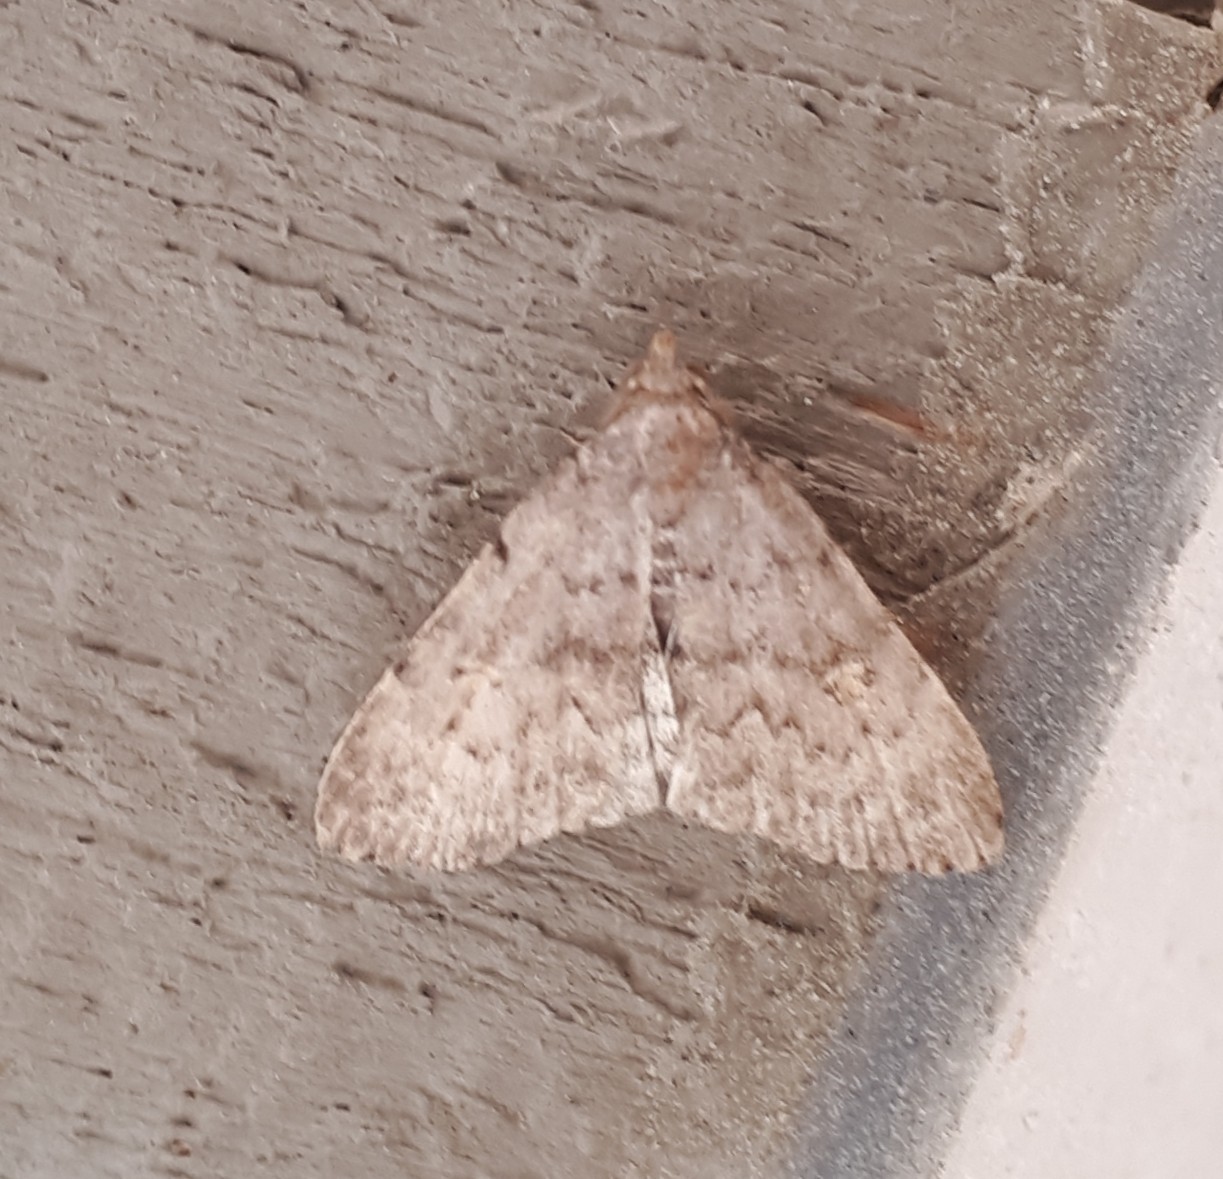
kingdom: Animalia
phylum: Arthropoda
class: Insecta
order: Lepidoptera
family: Erebidae
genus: Idia
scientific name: Idia aemula
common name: Common idia moth
